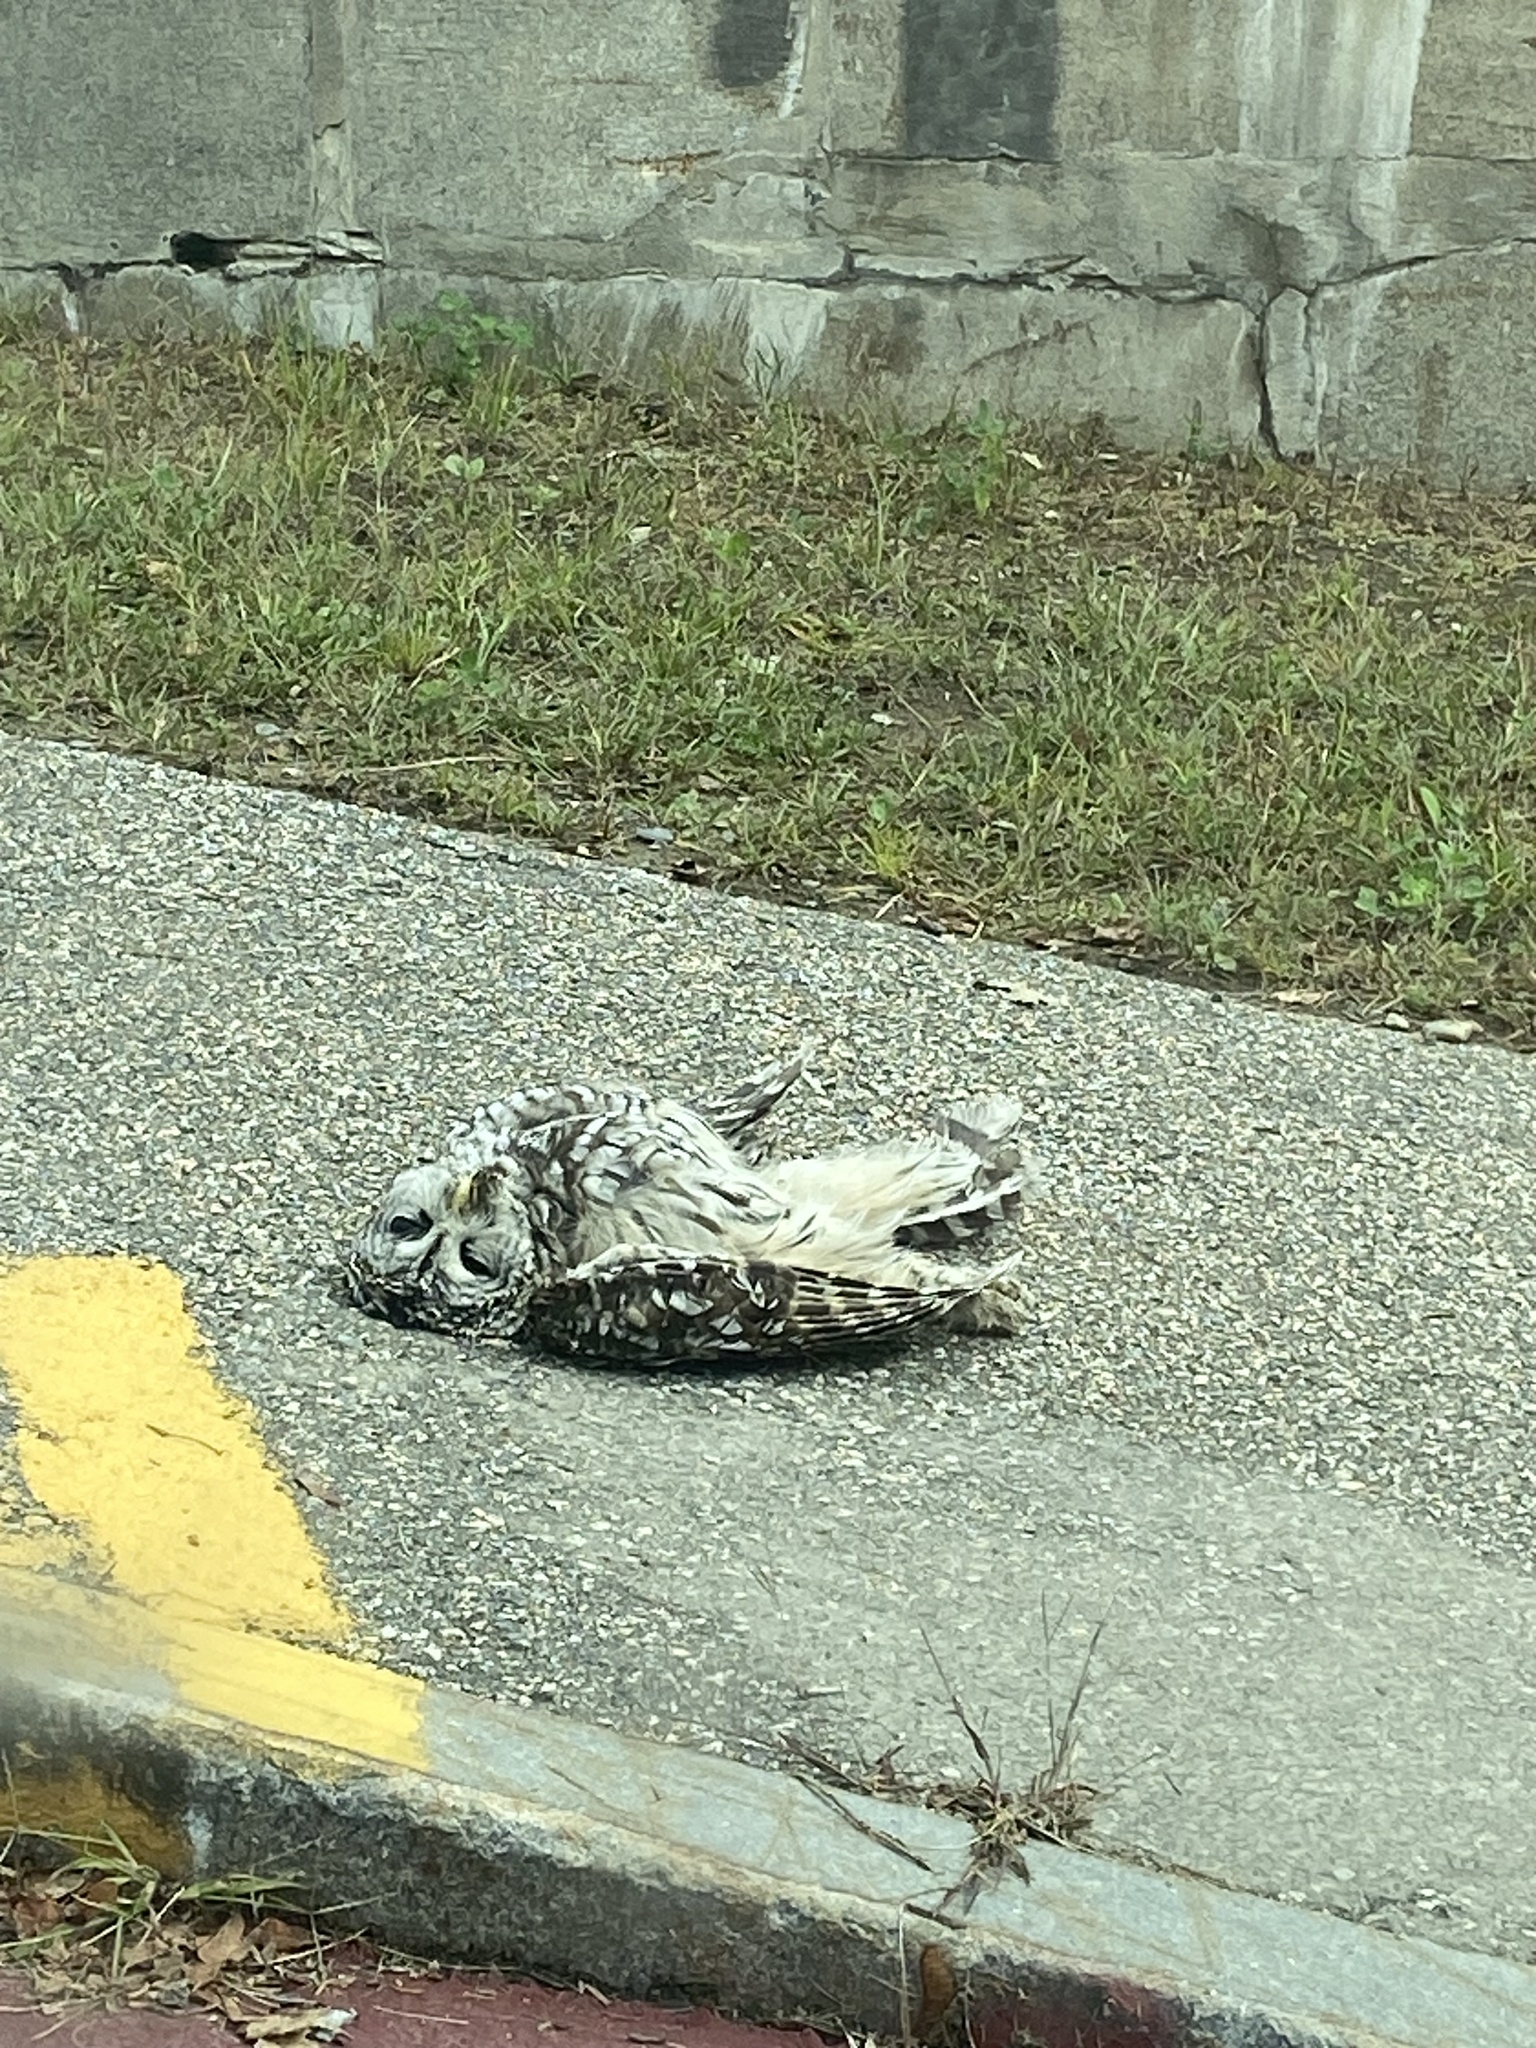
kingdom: Animalia
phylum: Chordata
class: Aves
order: Strigiformes
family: Strigidae
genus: Strix
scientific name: Strix varia
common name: Barred owl
